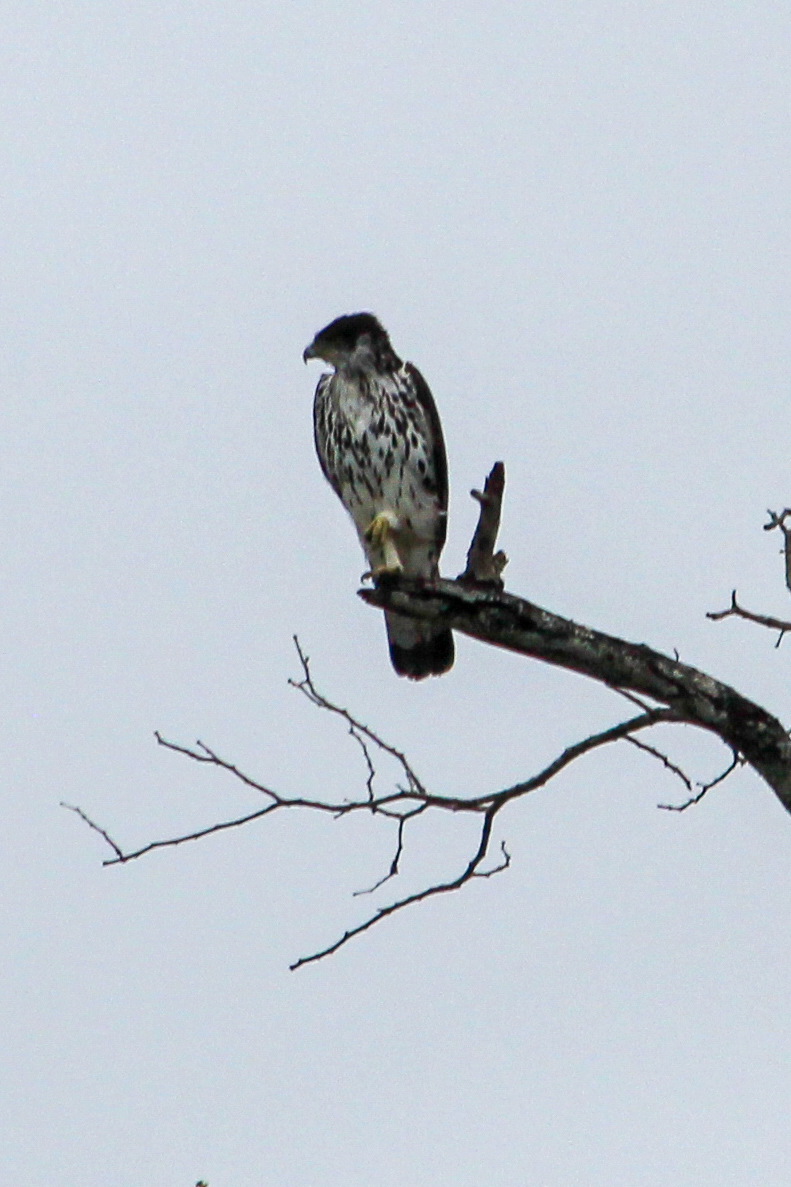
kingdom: Animalia
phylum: Chordata
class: Aves
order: Accipitriformes
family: Accipitridae
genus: Aquila
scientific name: Aquila spilogaster
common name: African hawk-eagle
